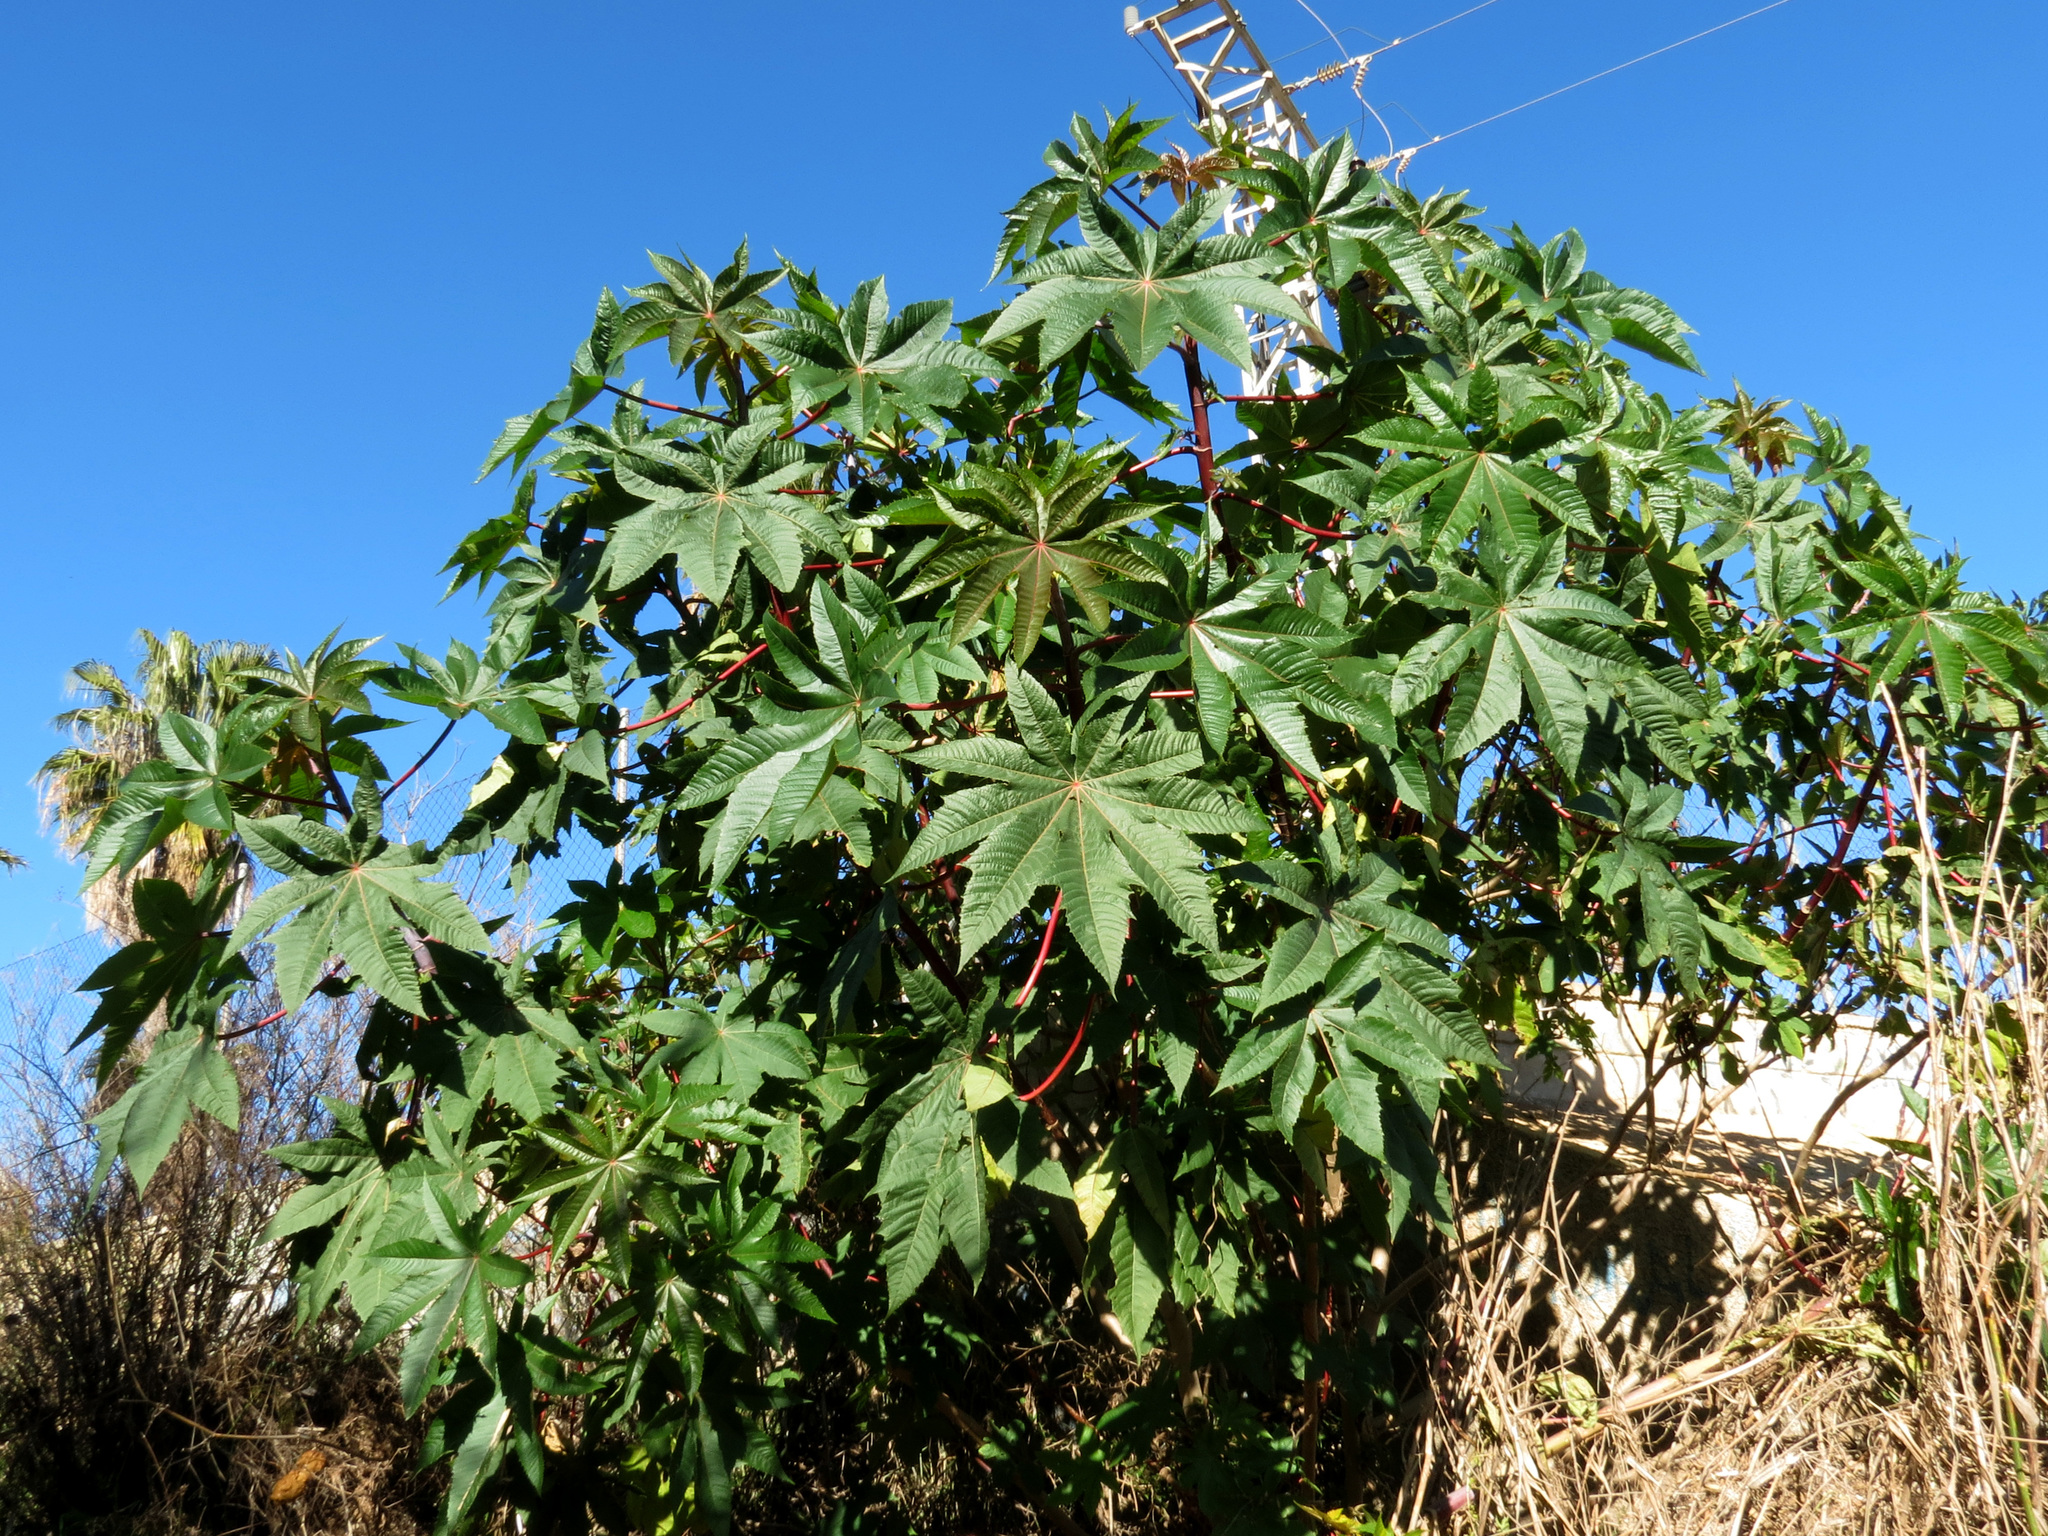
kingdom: Plantae
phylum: Tracheophyta
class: Magnoliopsida
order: Malpighiales
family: Euphorbiaceae
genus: Ricinus
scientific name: Ricinus communis
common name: Castor-oil-plant
